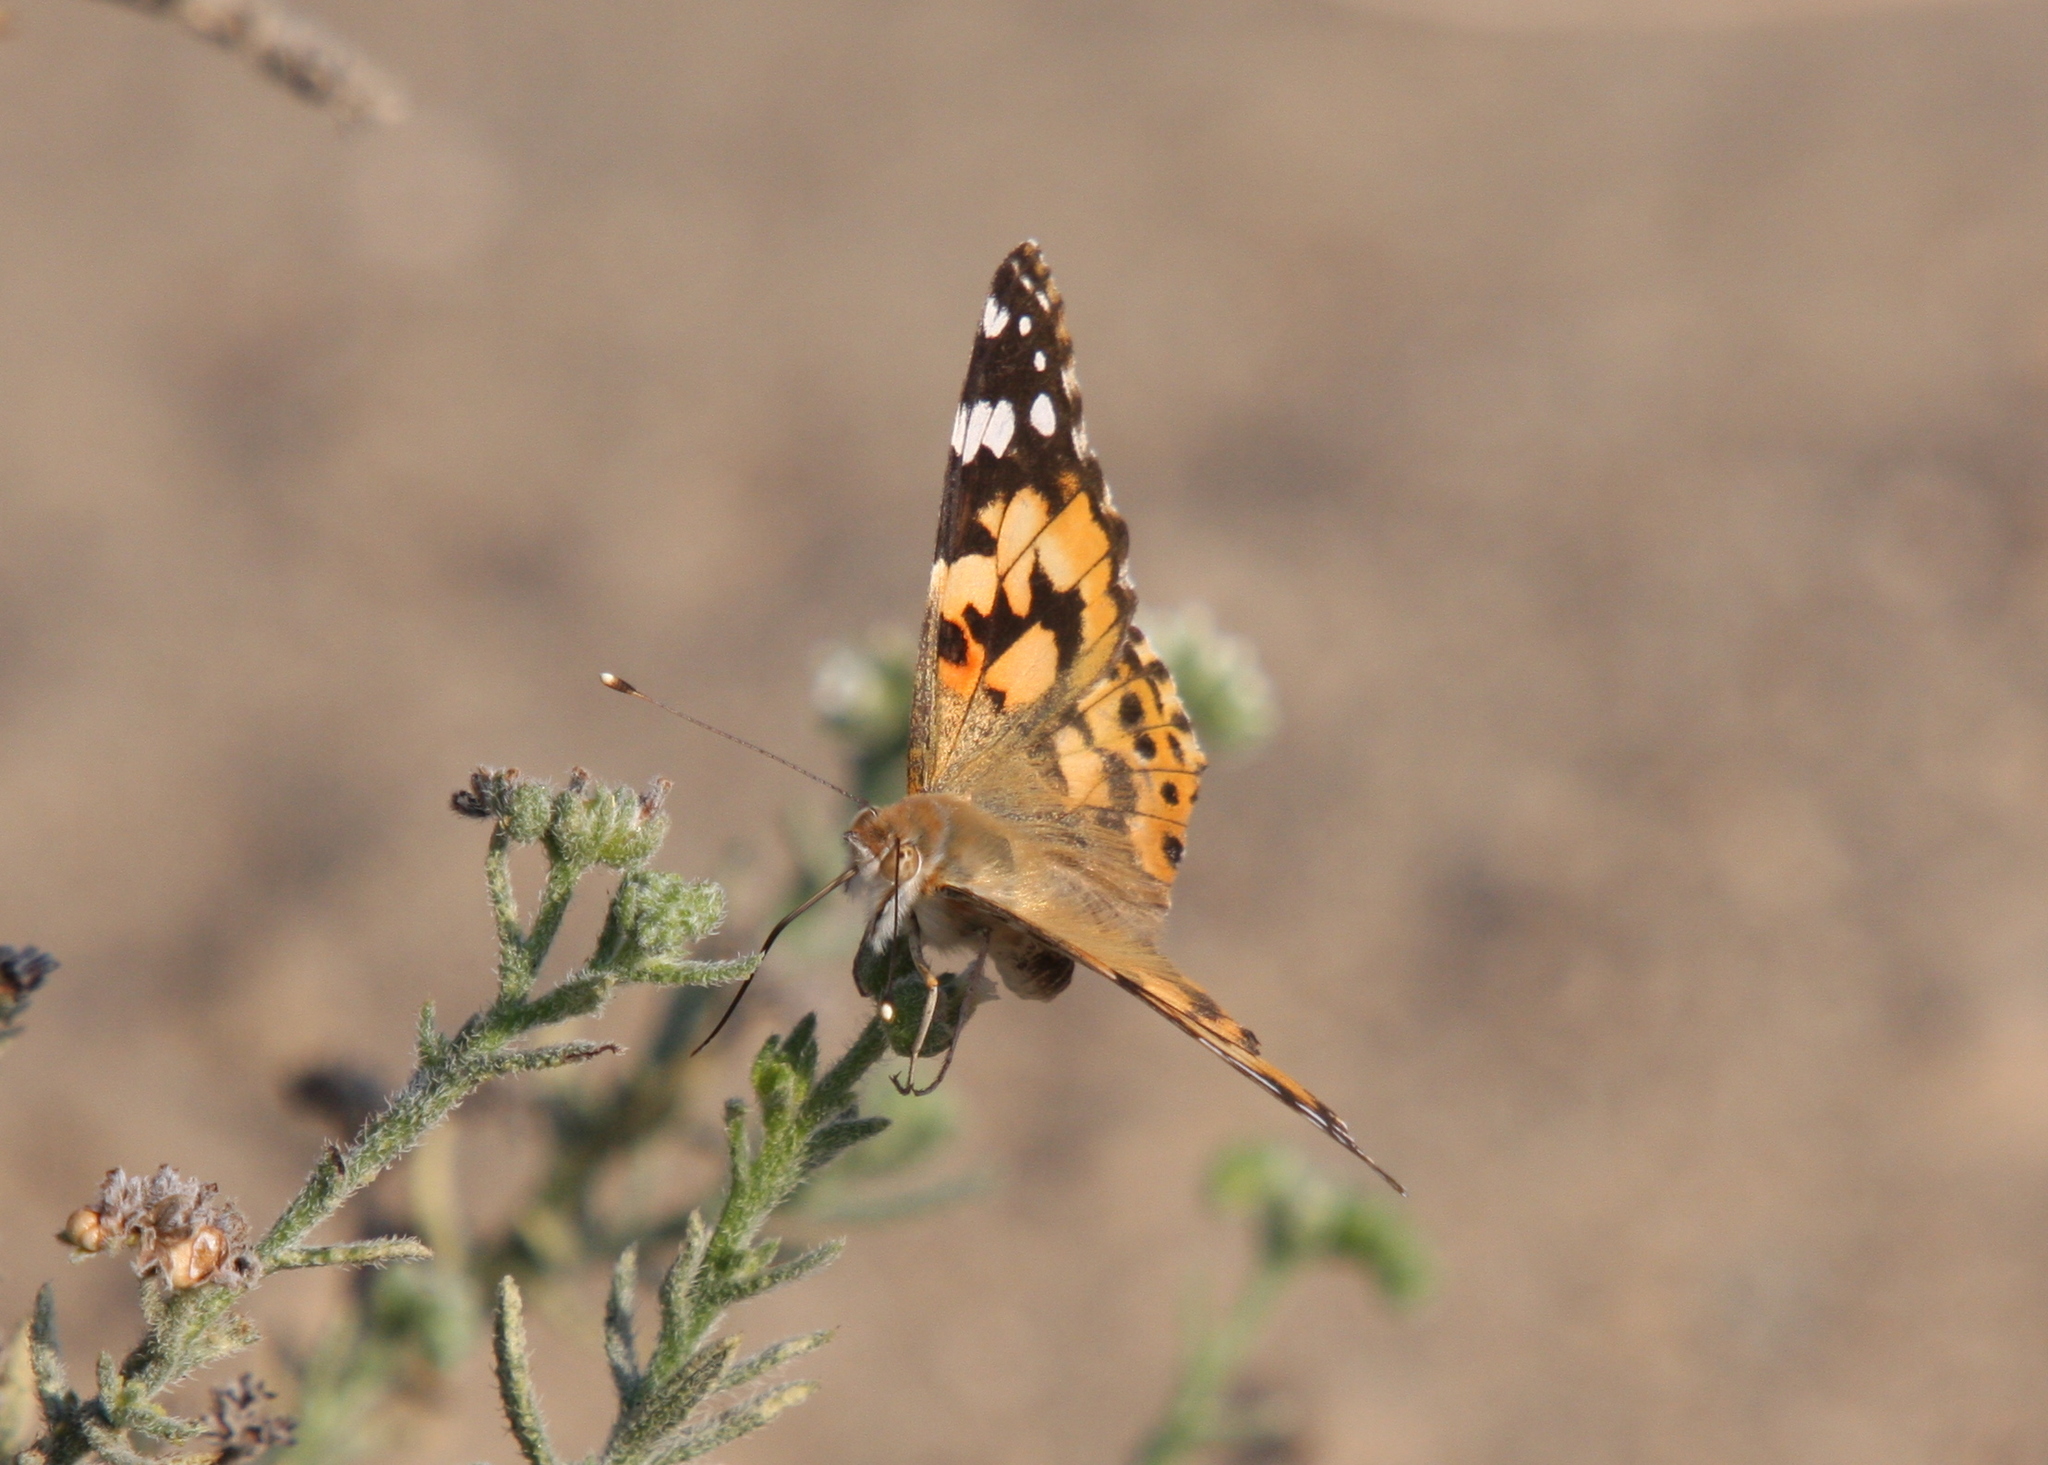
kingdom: Animalia
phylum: Arthropoda
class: Insecta
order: Lepidoptera
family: Nymphalidae
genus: Vanessa
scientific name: Vanessa cardui
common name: Painted lady
